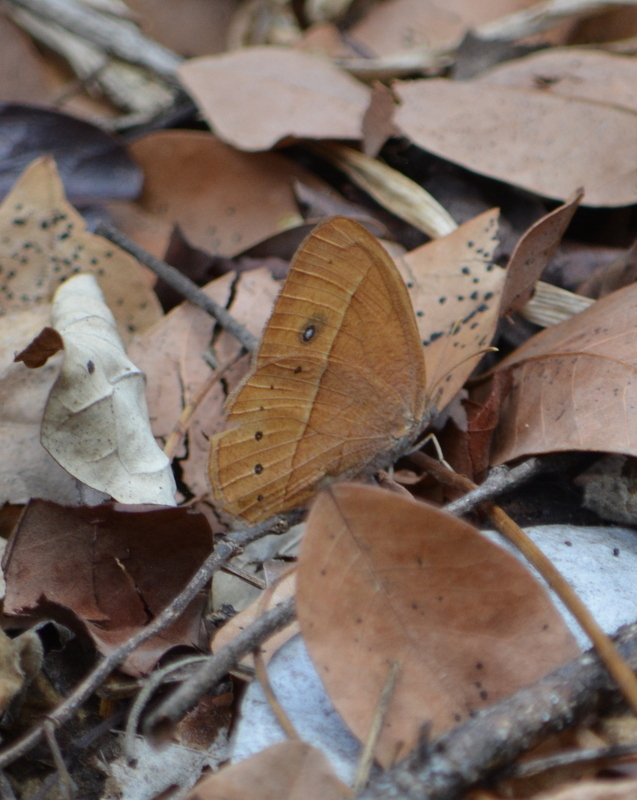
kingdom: Animalia
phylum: Arthropoda
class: Insecta
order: Lepidoptera
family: Nymphalidae
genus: Brakefieldia
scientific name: Brakefieldia simonsii
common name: Pale patroller
